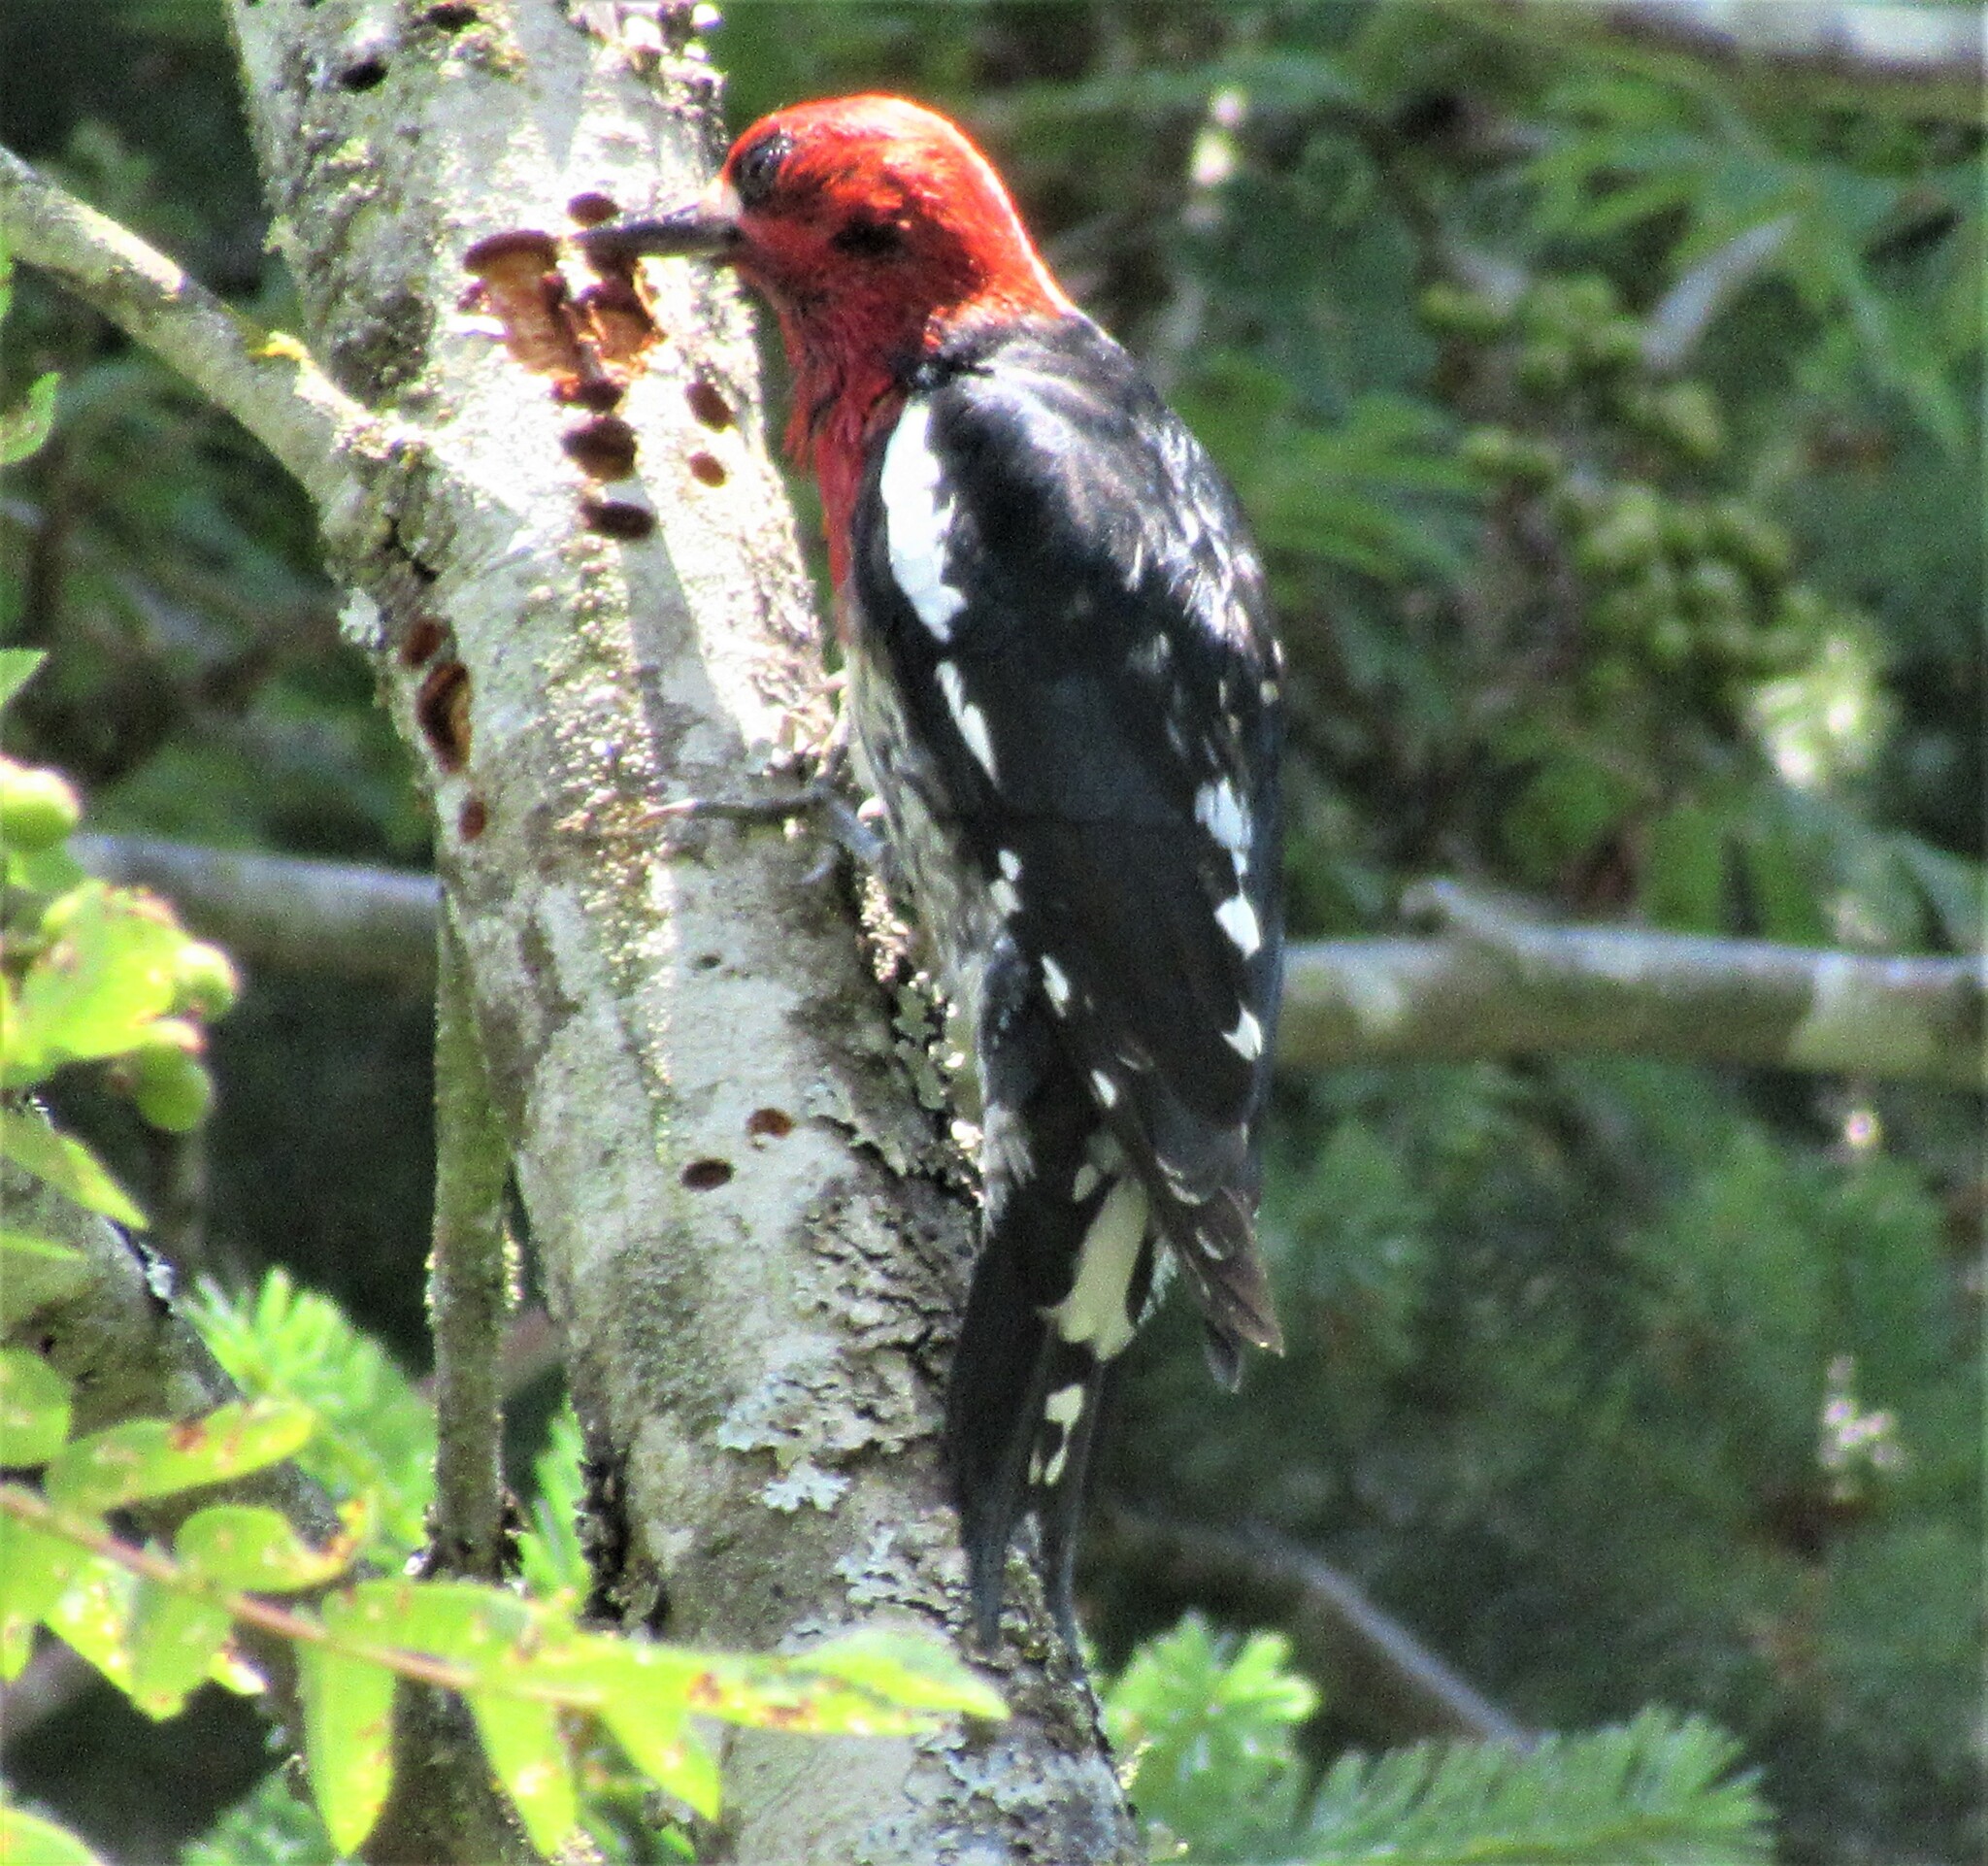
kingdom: Animalia
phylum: Chordata
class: Aves
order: Piciformes
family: Picidae
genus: Sphyrapicus
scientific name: Sphyrapicus ruber
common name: Red-breasted sapsucker
